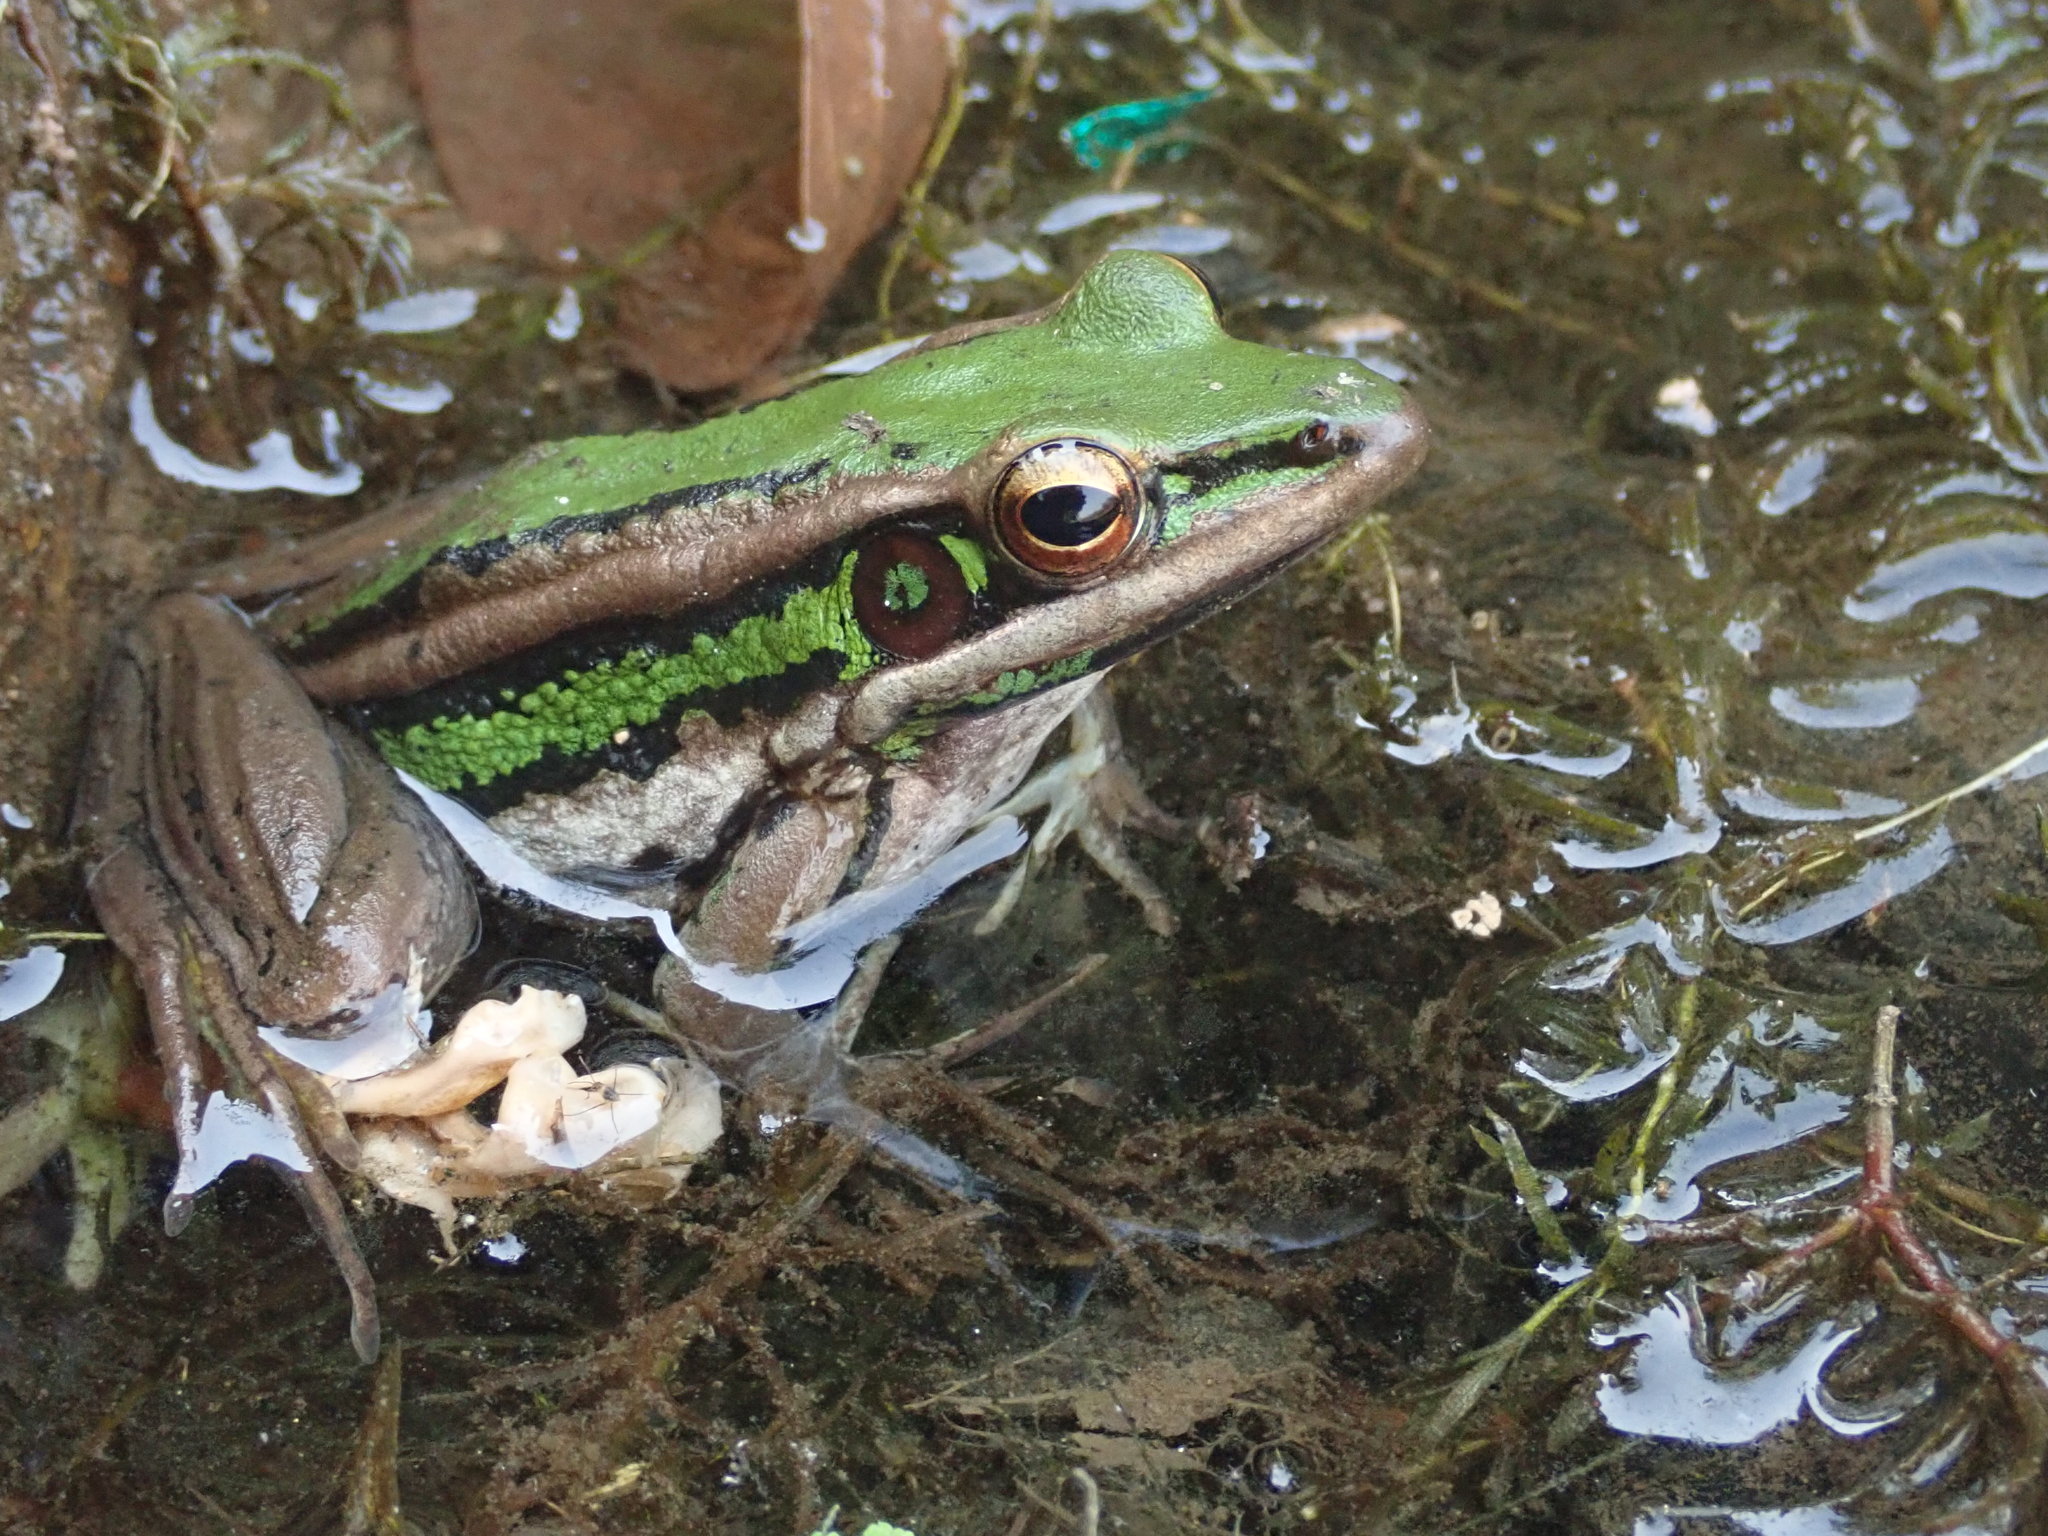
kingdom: Animalia
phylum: Chordata
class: Amphibia
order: Anura
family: Ranidae
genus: Hylarana
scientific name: Hylarana erythraea
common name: Common green frog/green paddy frog/leaf frog
